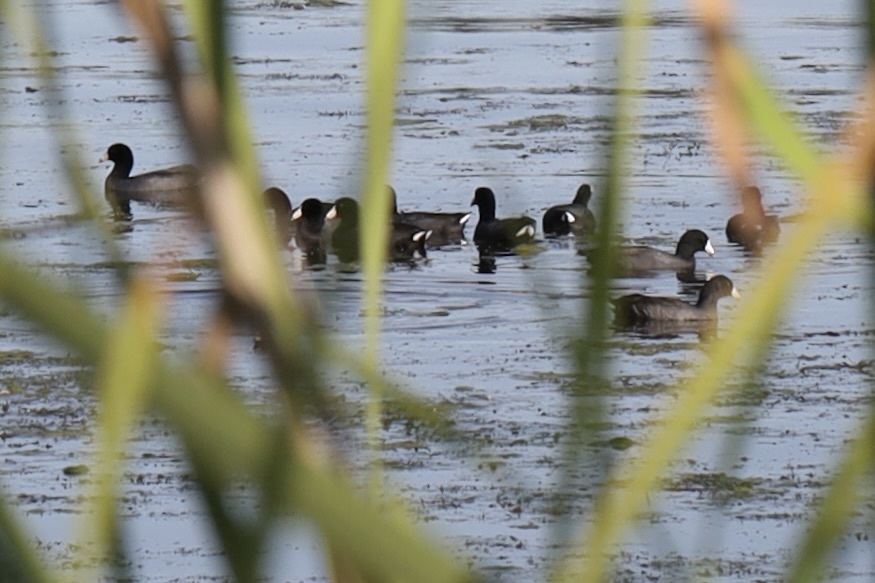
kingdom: Animalia
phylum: Chordata
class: Aves
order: Gruiformes
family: Rallidae
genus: Fulica
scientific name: Fulica americana
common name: American coot
